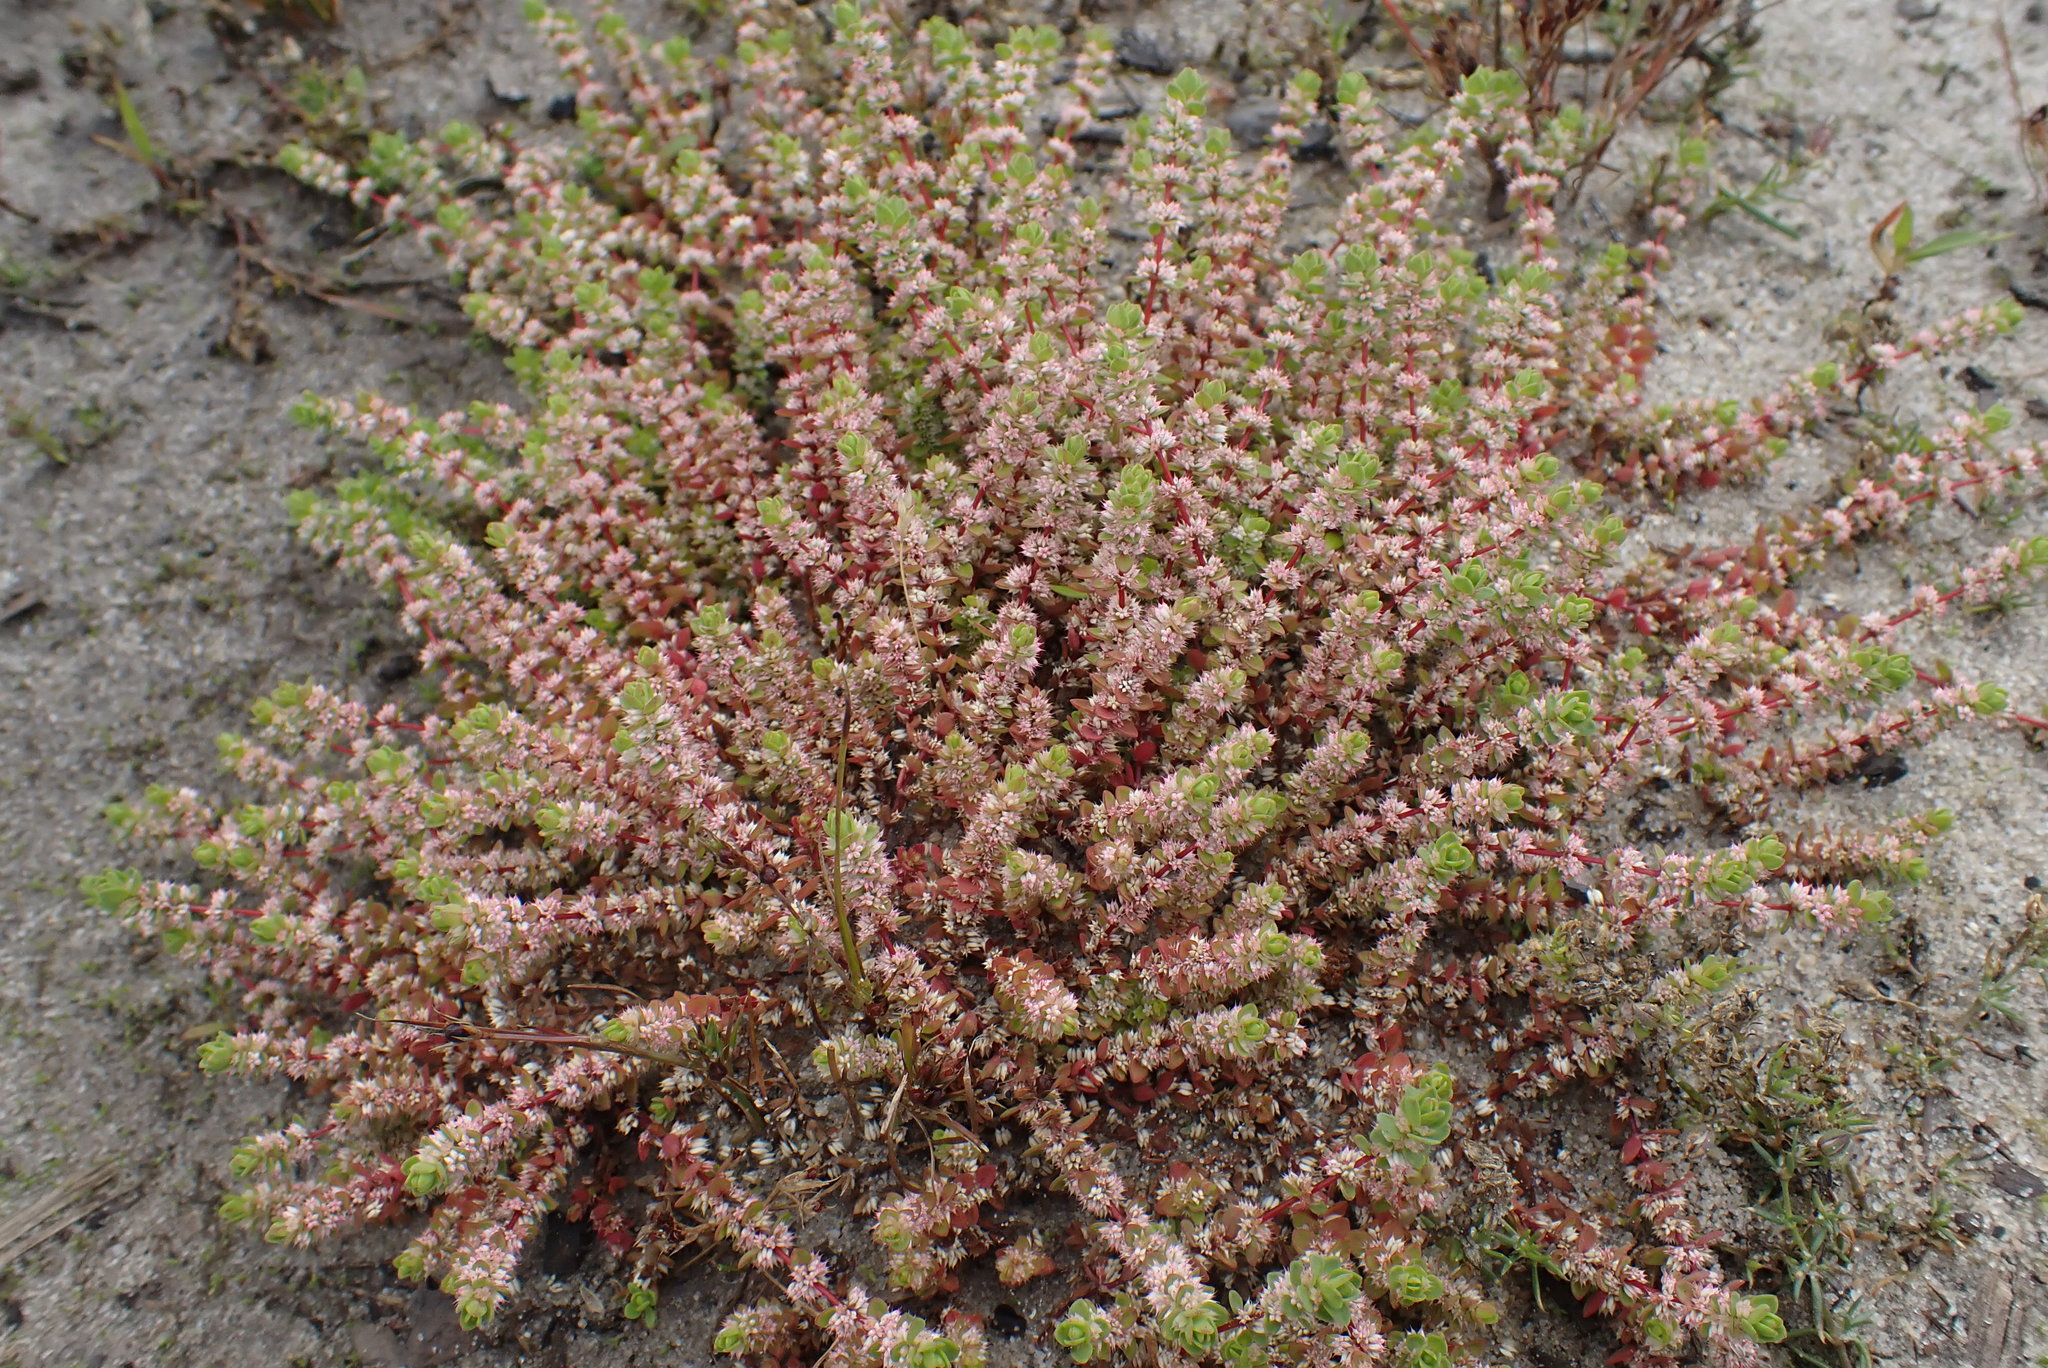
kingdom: Plantae
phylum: Tracheophyta
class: Magnoliopsida
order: Caryophyllales
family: Caryophyllaceae
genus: Illecebrum
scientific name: Illecebrum verticillatum
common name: Coral necklace
